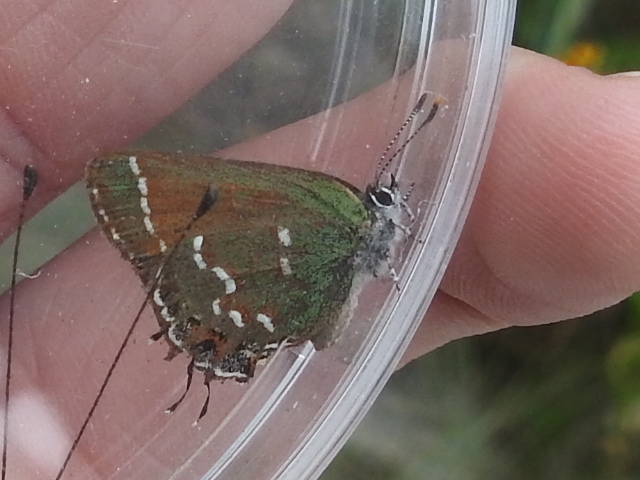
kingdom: Animalia
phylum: Arthropoda
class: Insecta
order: Lepidoptera
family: Lycaenidae
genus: Mitoura
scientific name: Mitoura gryneus
